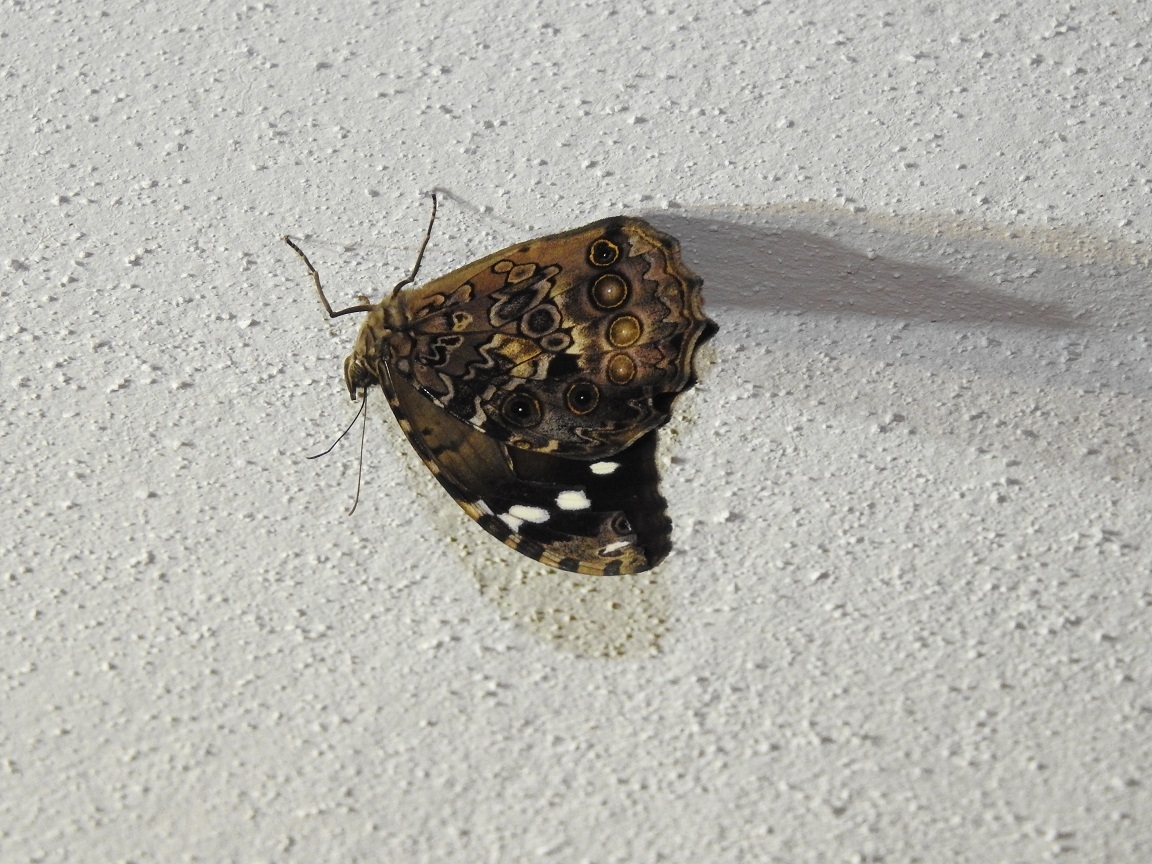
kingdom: Animalia
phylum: Arthropoda
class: Insecta
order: Lepidoptera
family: Nymphalidae
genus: Manataria
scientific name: Manataria maculata
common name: White-spotted satyr
